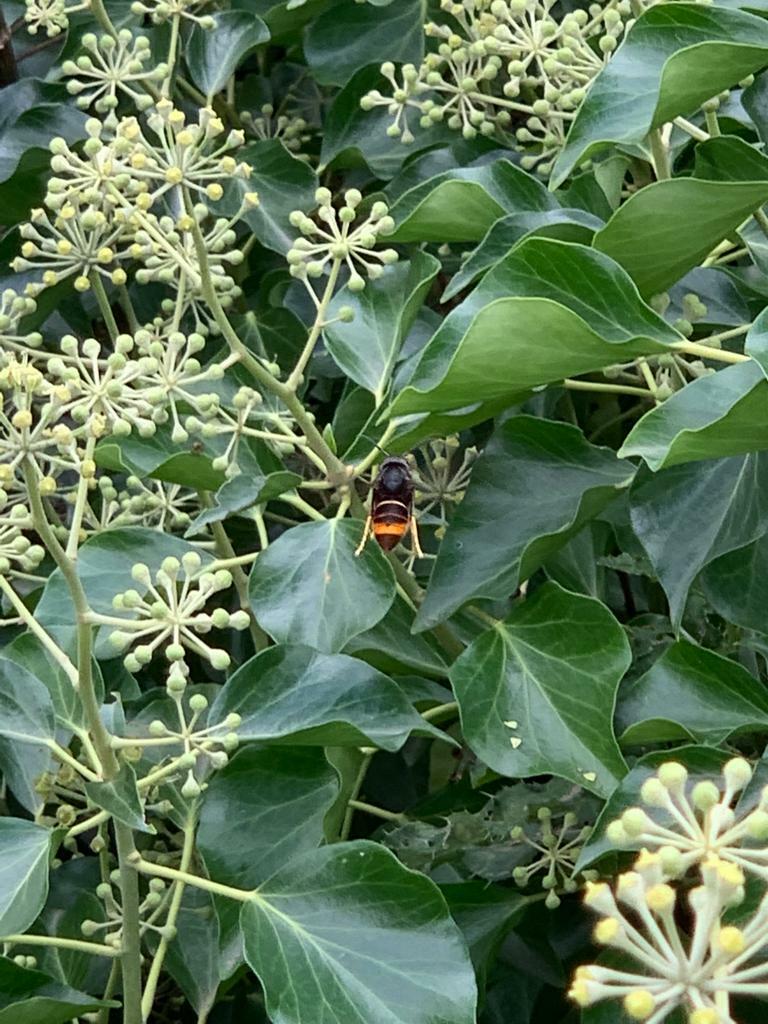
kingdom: Animalia
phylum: Arthropoda
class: Insecta
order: Hymenoptera
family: Vespidae
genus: Vespa
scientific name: Vespa velutina
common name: Asian hornet
